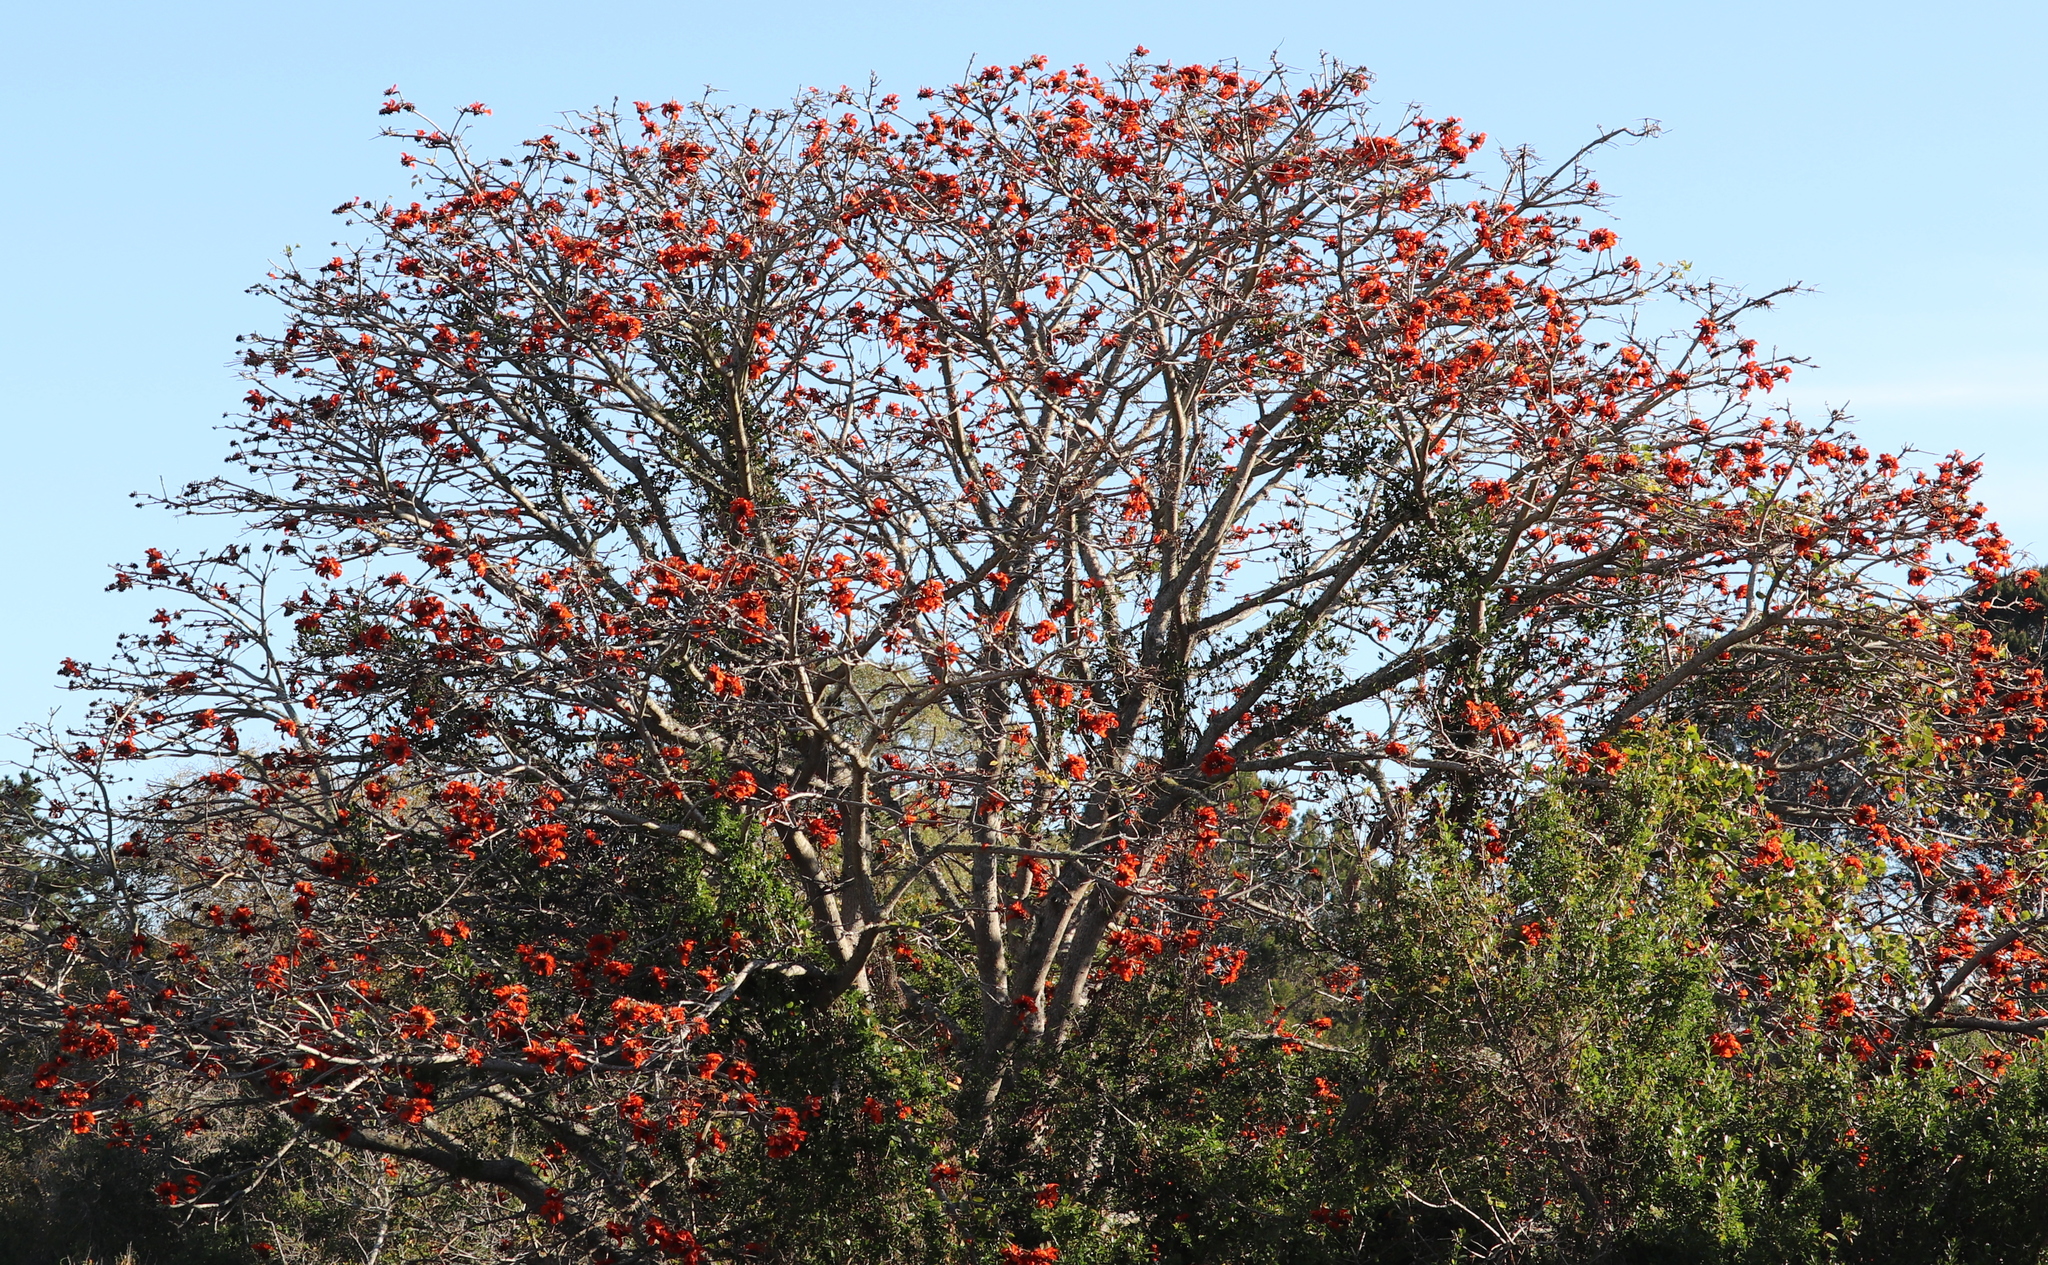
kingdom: Plantae
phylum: Tracheophyta
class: Magnoliopsida
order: Fabales
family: Fabaceae
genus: Erythrina
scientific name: Erythrina caffra
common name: Coast coral tree
